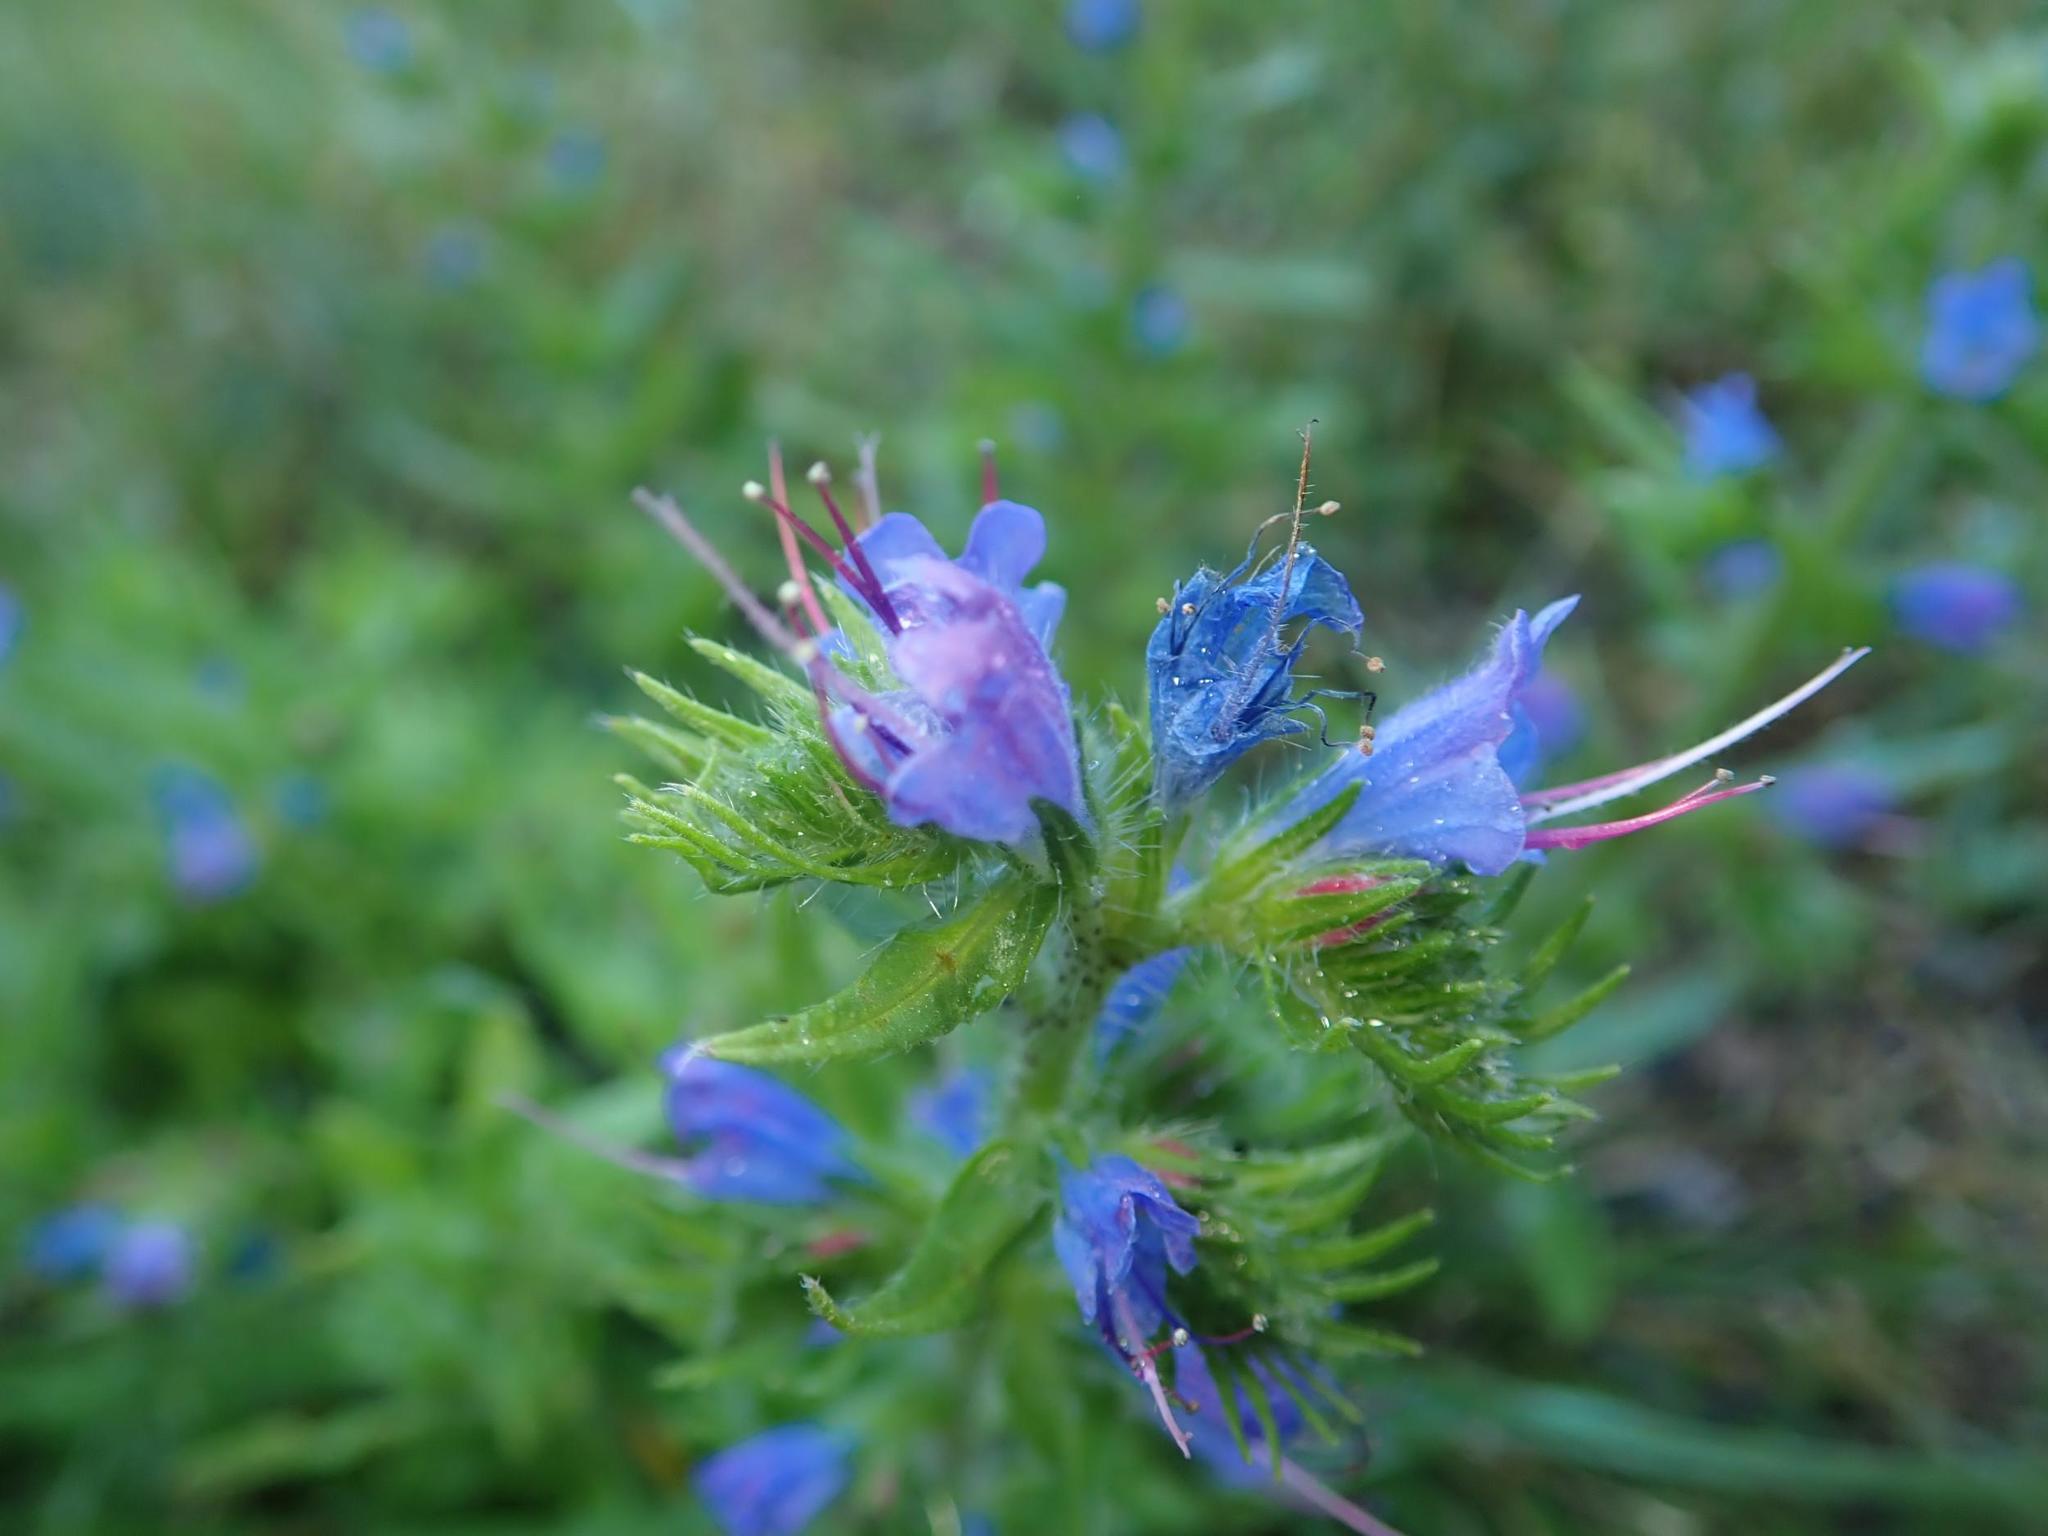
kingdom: Plantae
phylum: Tracheophyta
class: Magnoliopsida
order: Boraginales
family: Boraginaceae
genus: Echium
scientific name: Echium vulgare
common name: Common viper's bugloss
